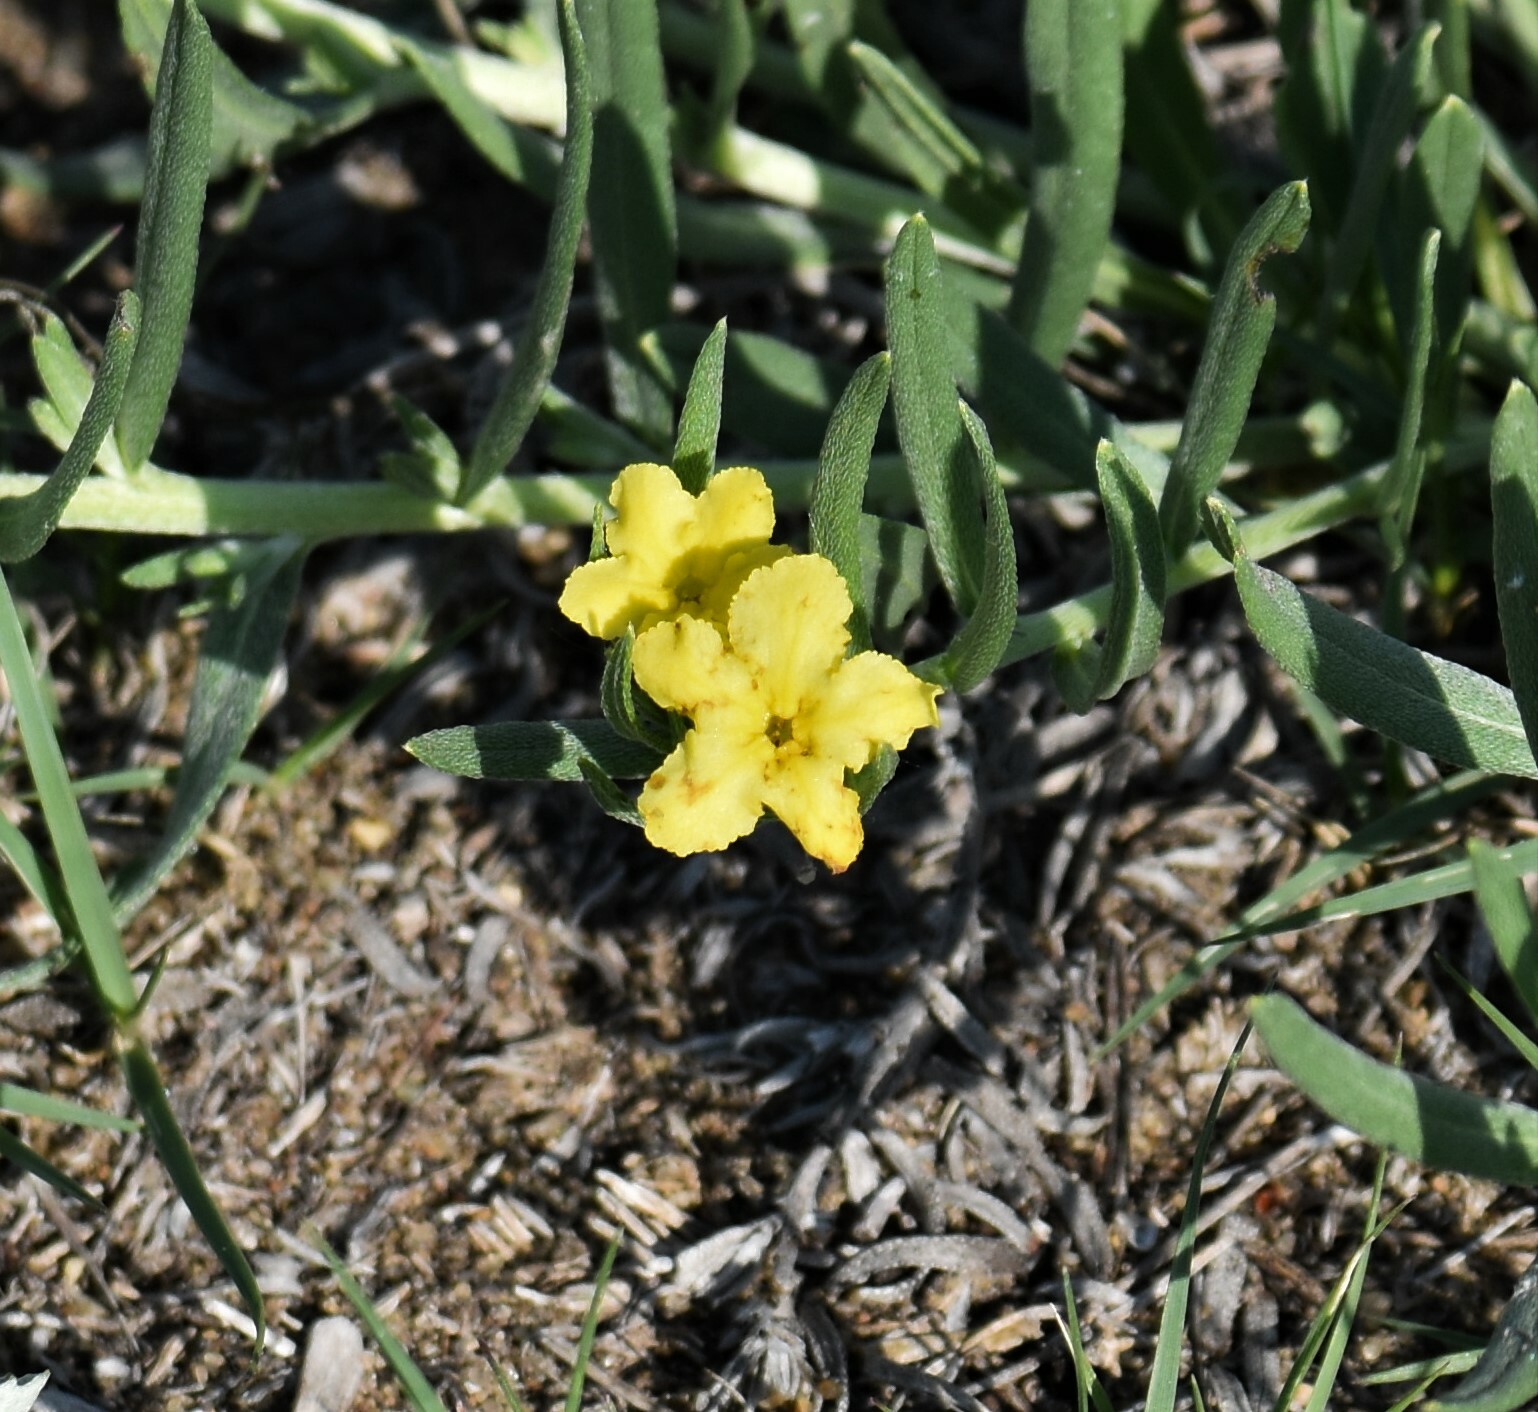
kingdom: Plantae
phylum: Tracheophyta
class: Magnoliopsida
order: Boraginales
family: Boraginaceae
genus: Lithospermum
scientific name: Lithospermum incisum
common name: Fringed gromwell
